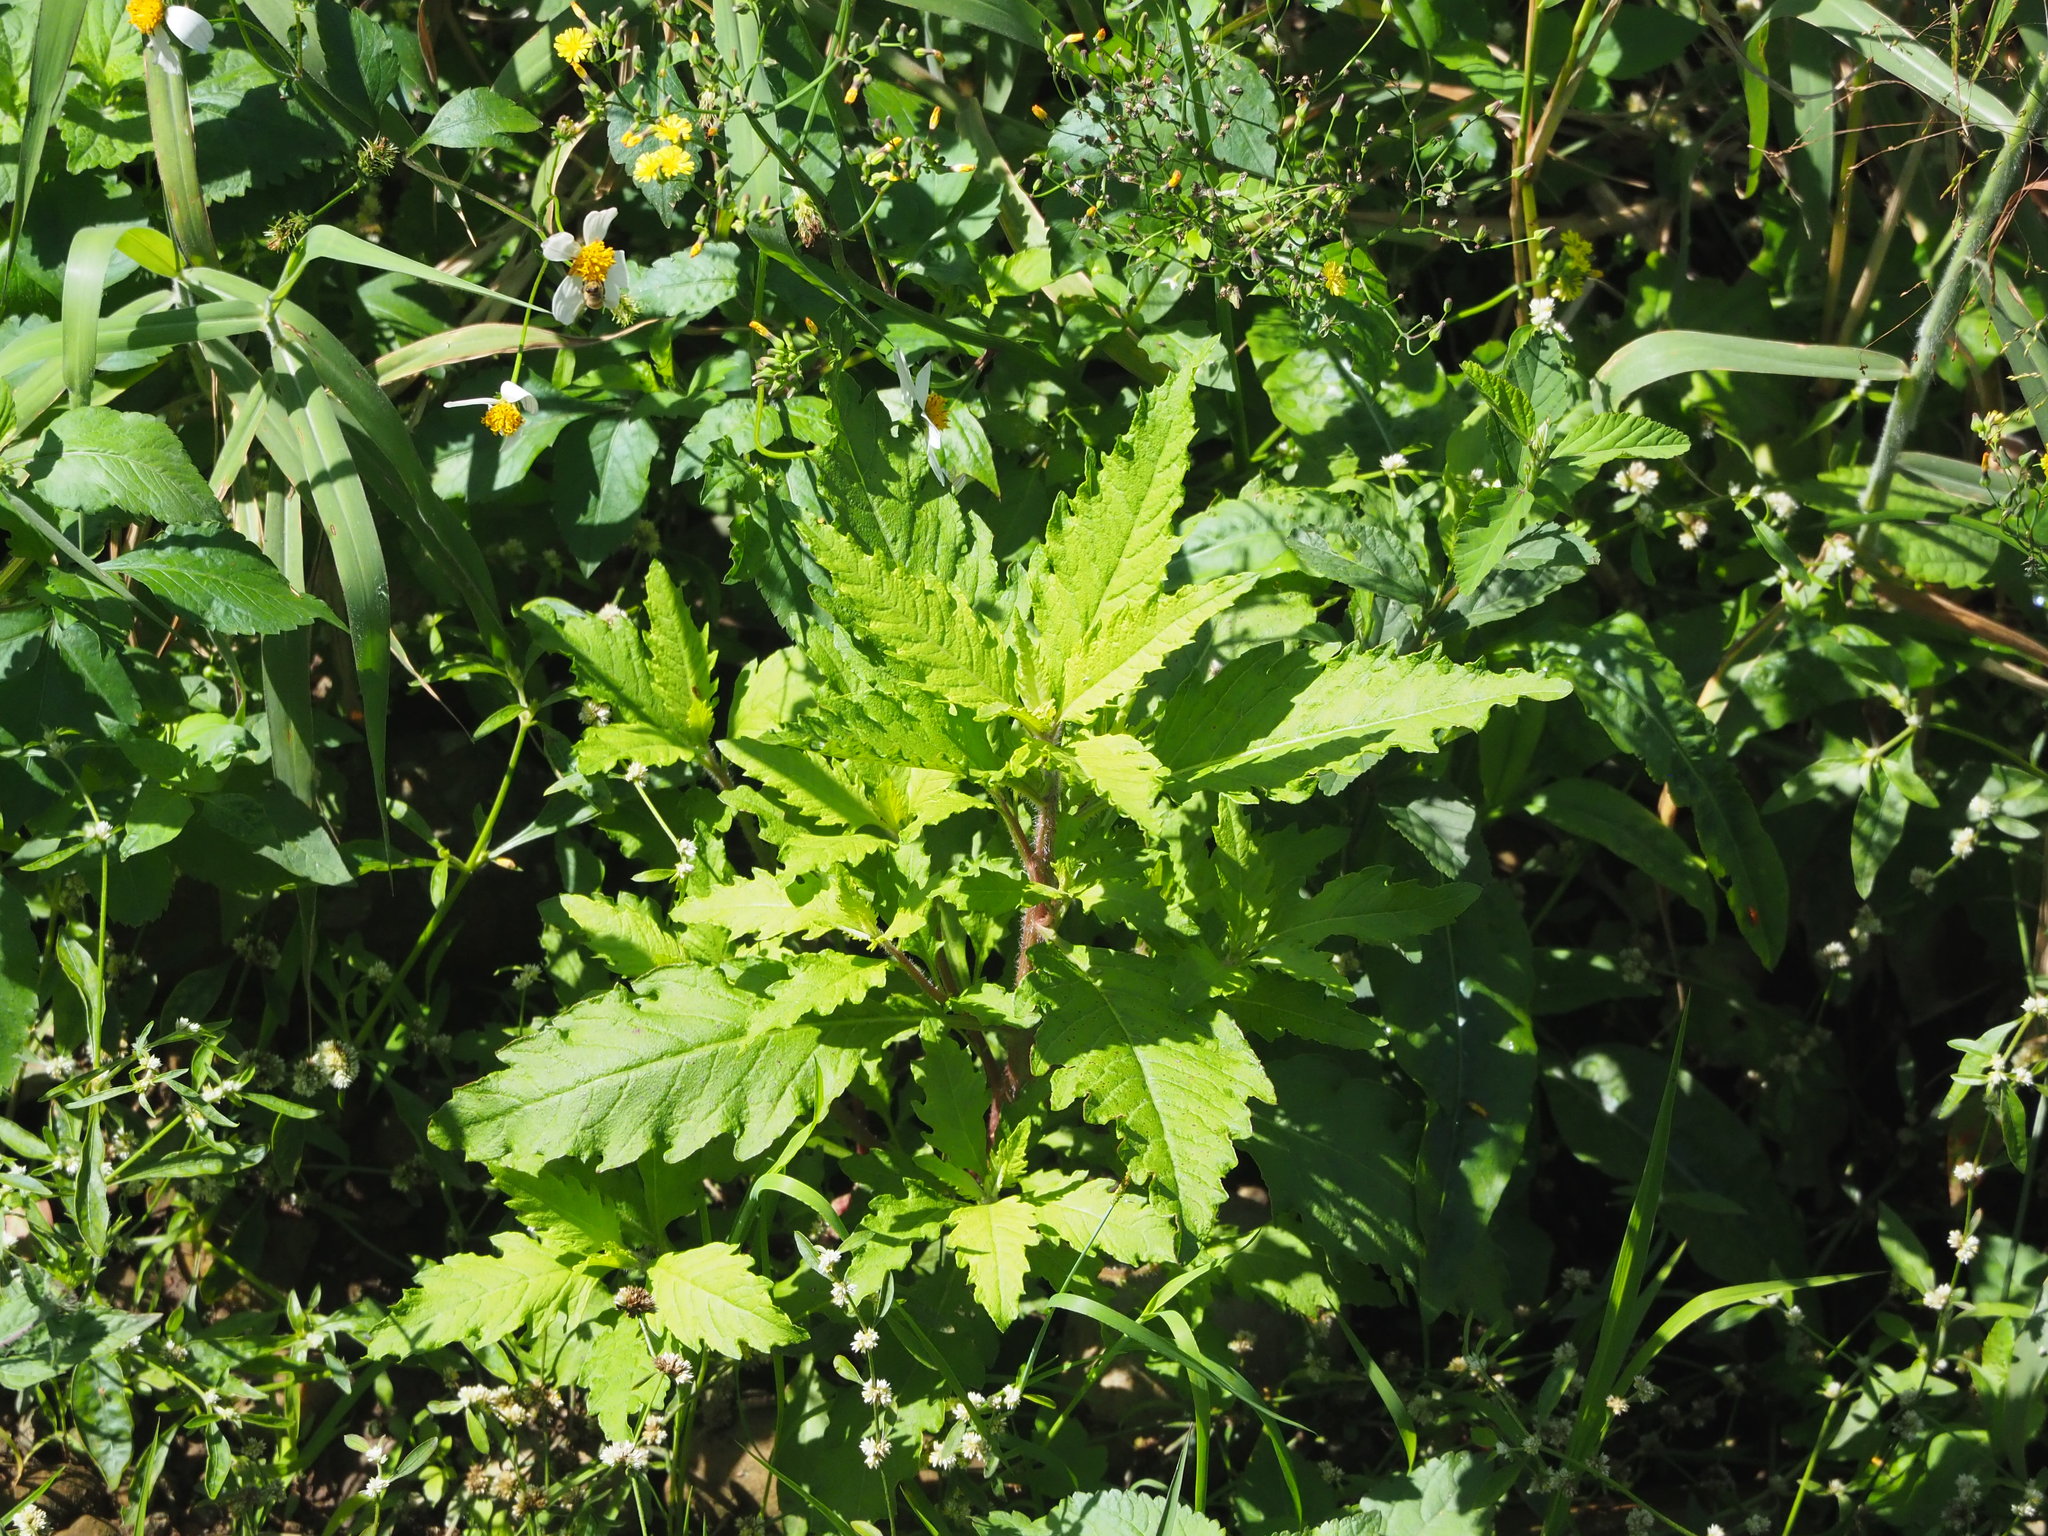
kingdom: Plantae
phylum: Tracheophyta
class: Magnoliopsida
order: Caryophyllales
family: Amaranthaceae
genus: Dysphania
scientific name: Dysphania ambrosioides
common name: Wormseed
